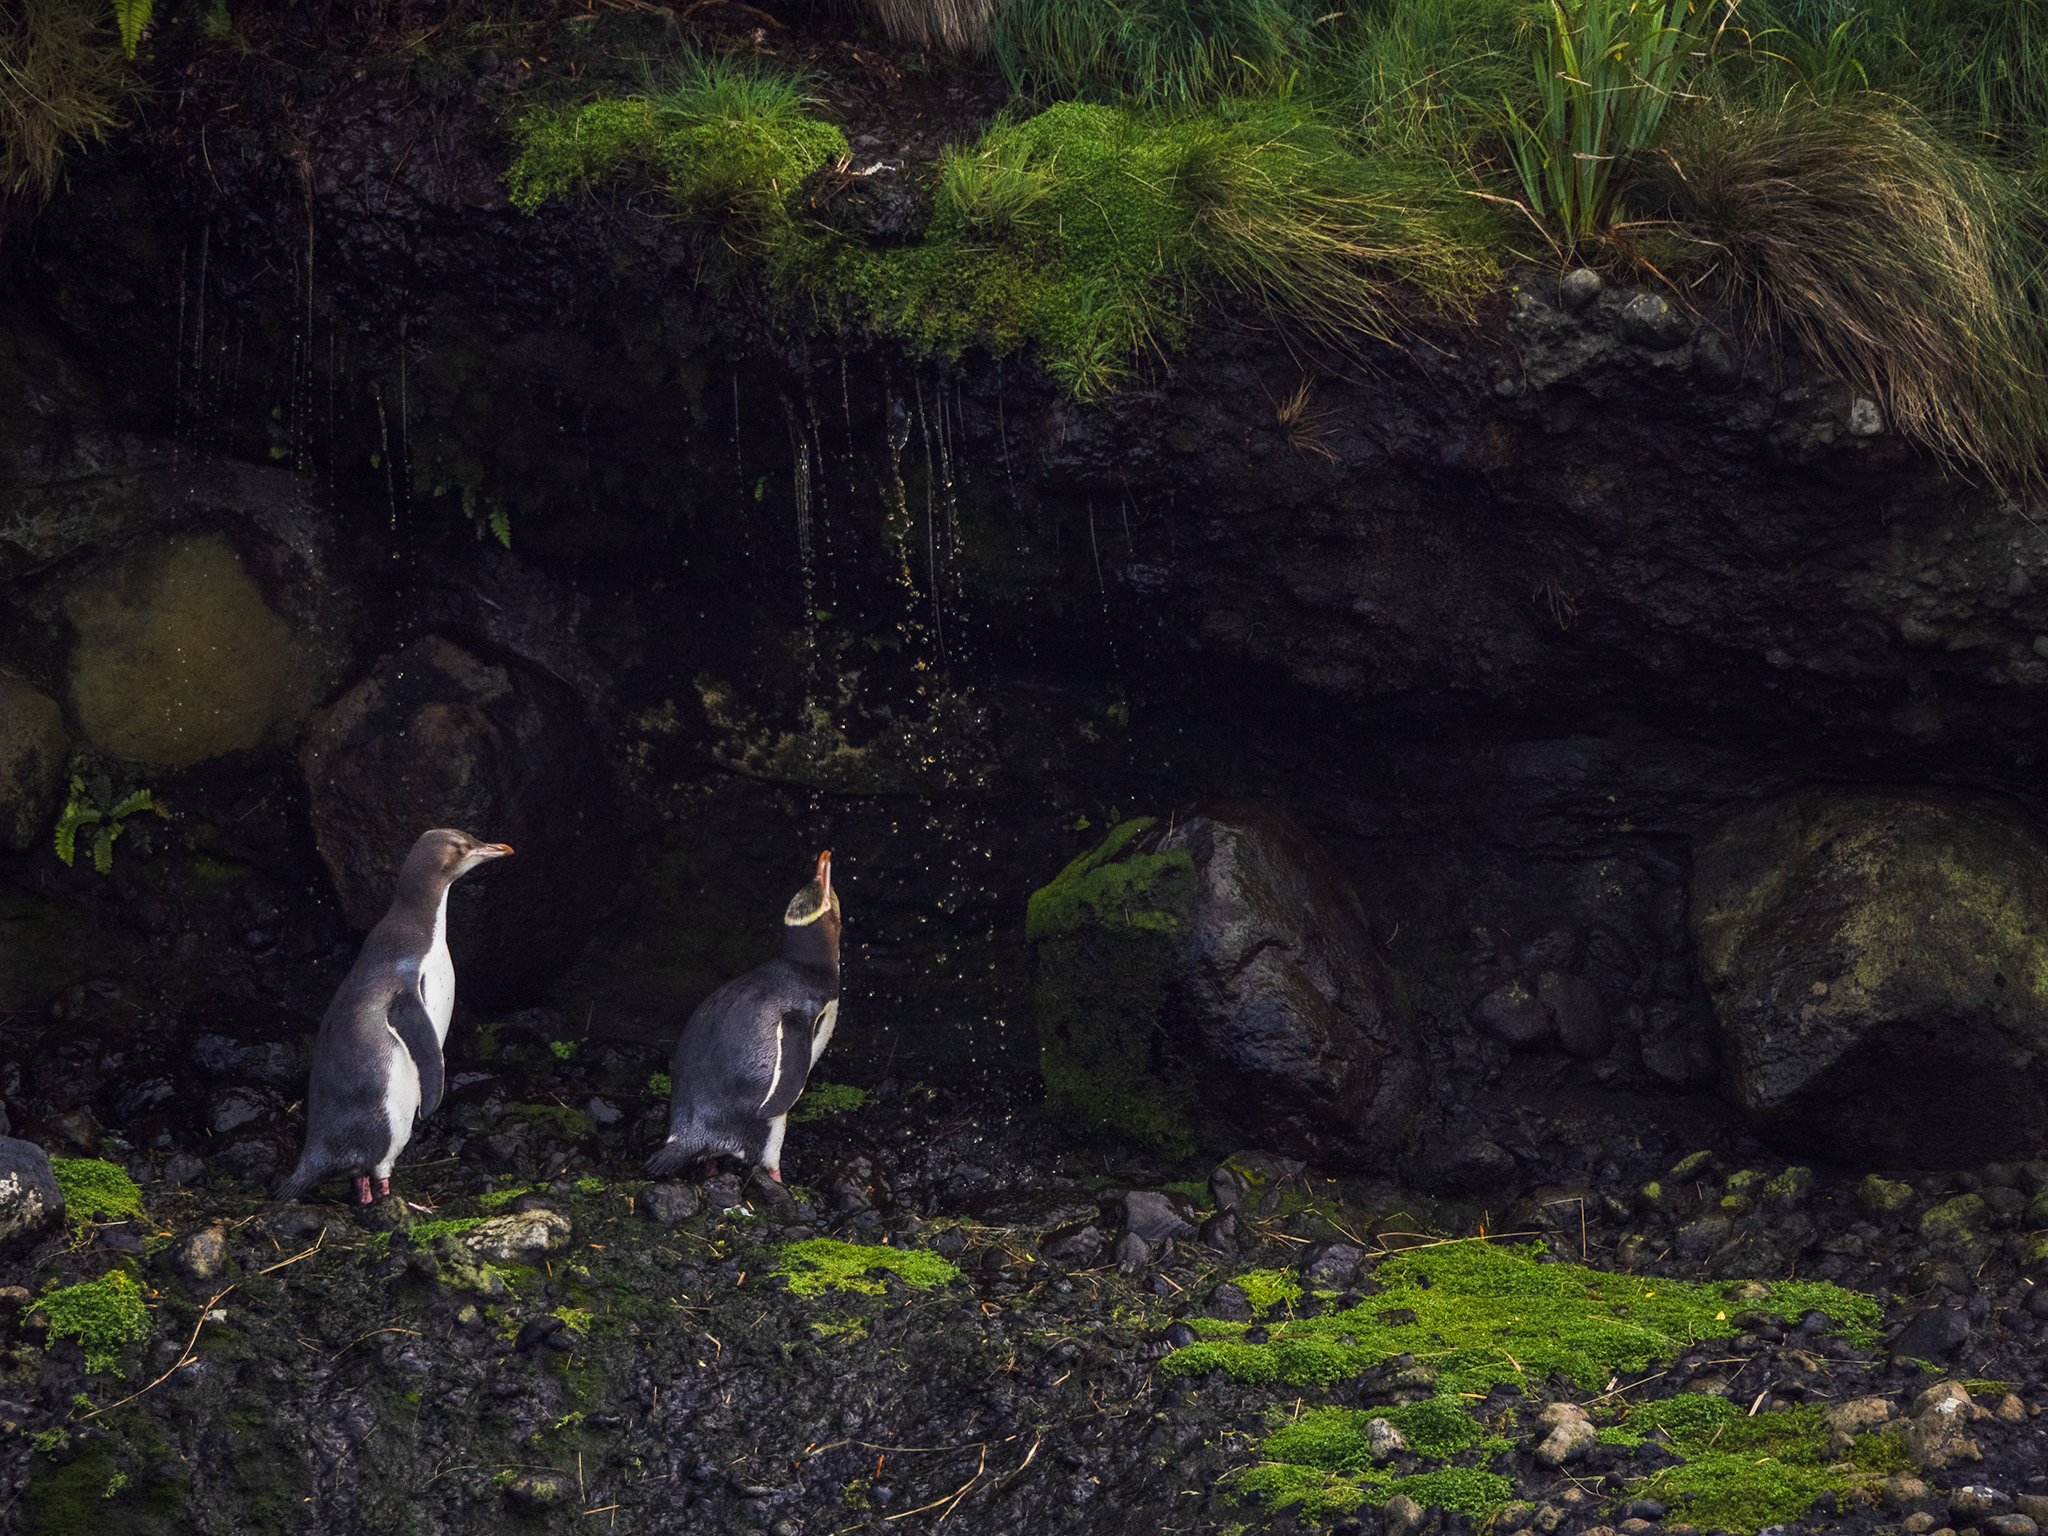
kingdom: Animalia
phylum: Chordata
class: Aves
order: Sphenisciformes
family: Spheniscidae
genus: Megadyptes
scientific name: Megadyptes antipodes
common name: Yellow-eyed penguin
